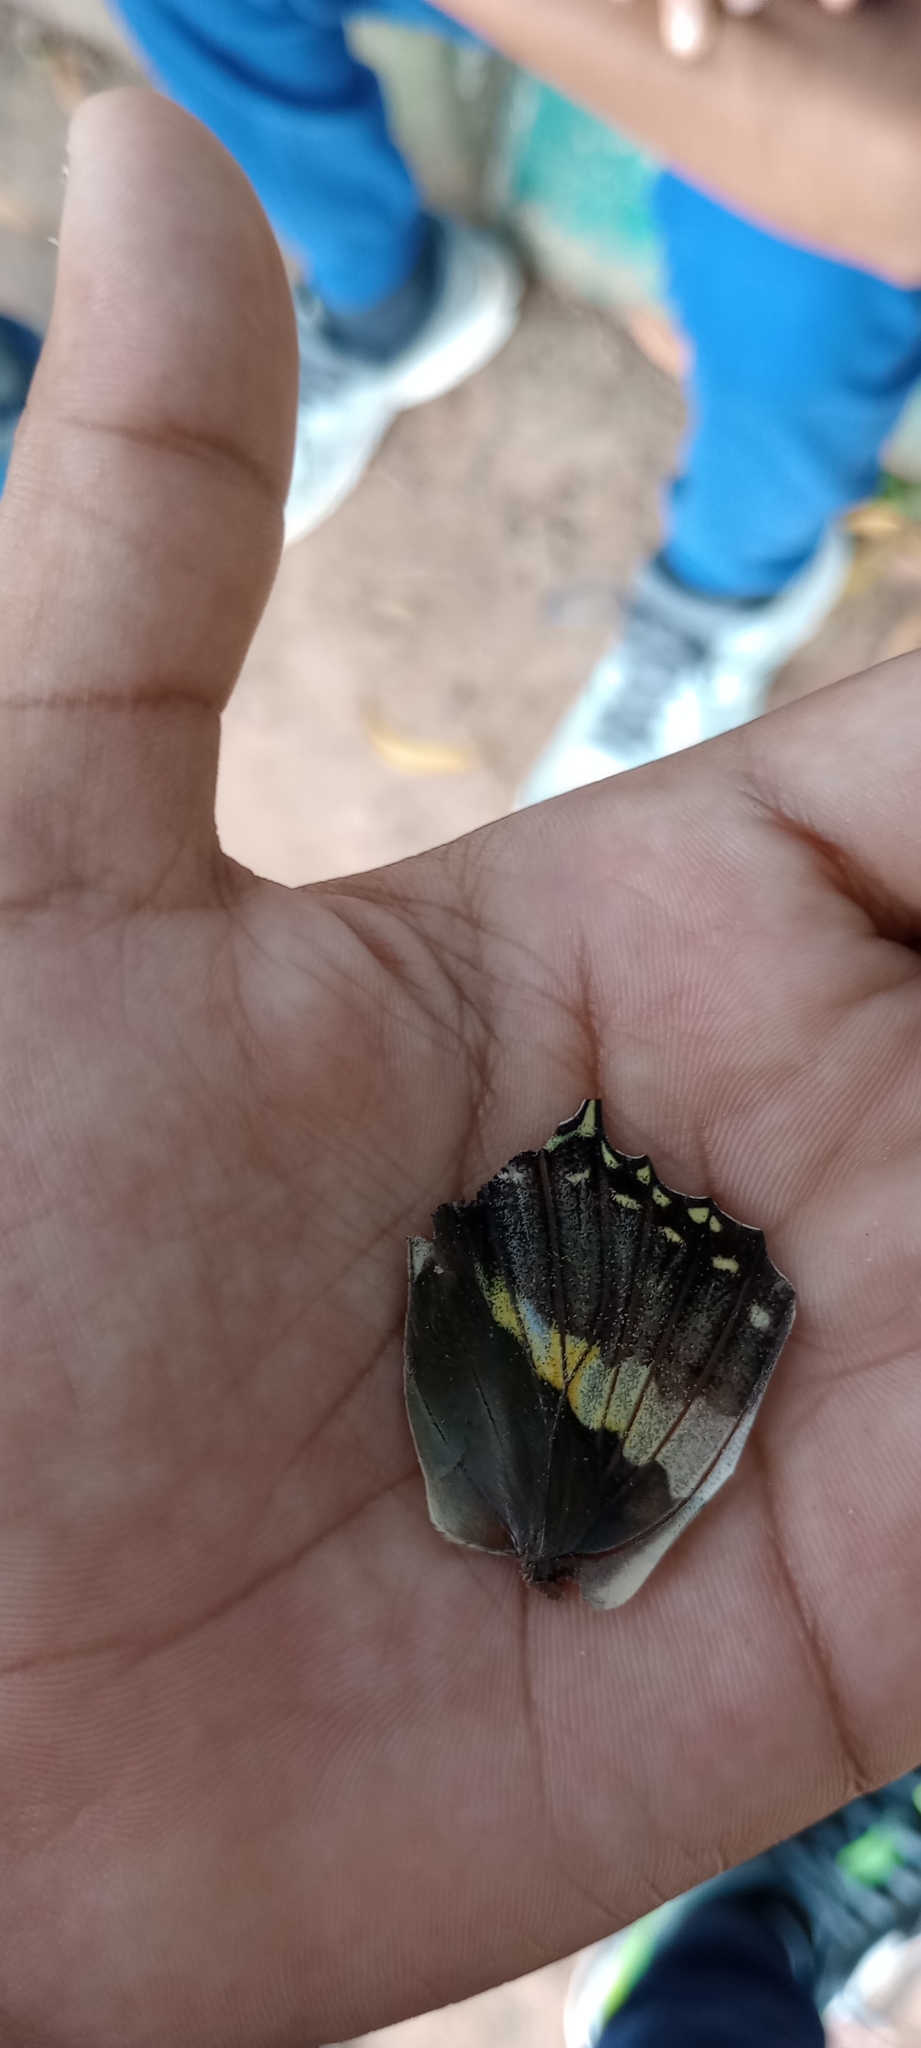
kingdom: Animalia
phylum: Arthropoda
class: Insecta
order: Lepidoptera
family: Nymphalidae
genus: Charaxes
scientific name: Charaxes solon
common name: Black rajah
